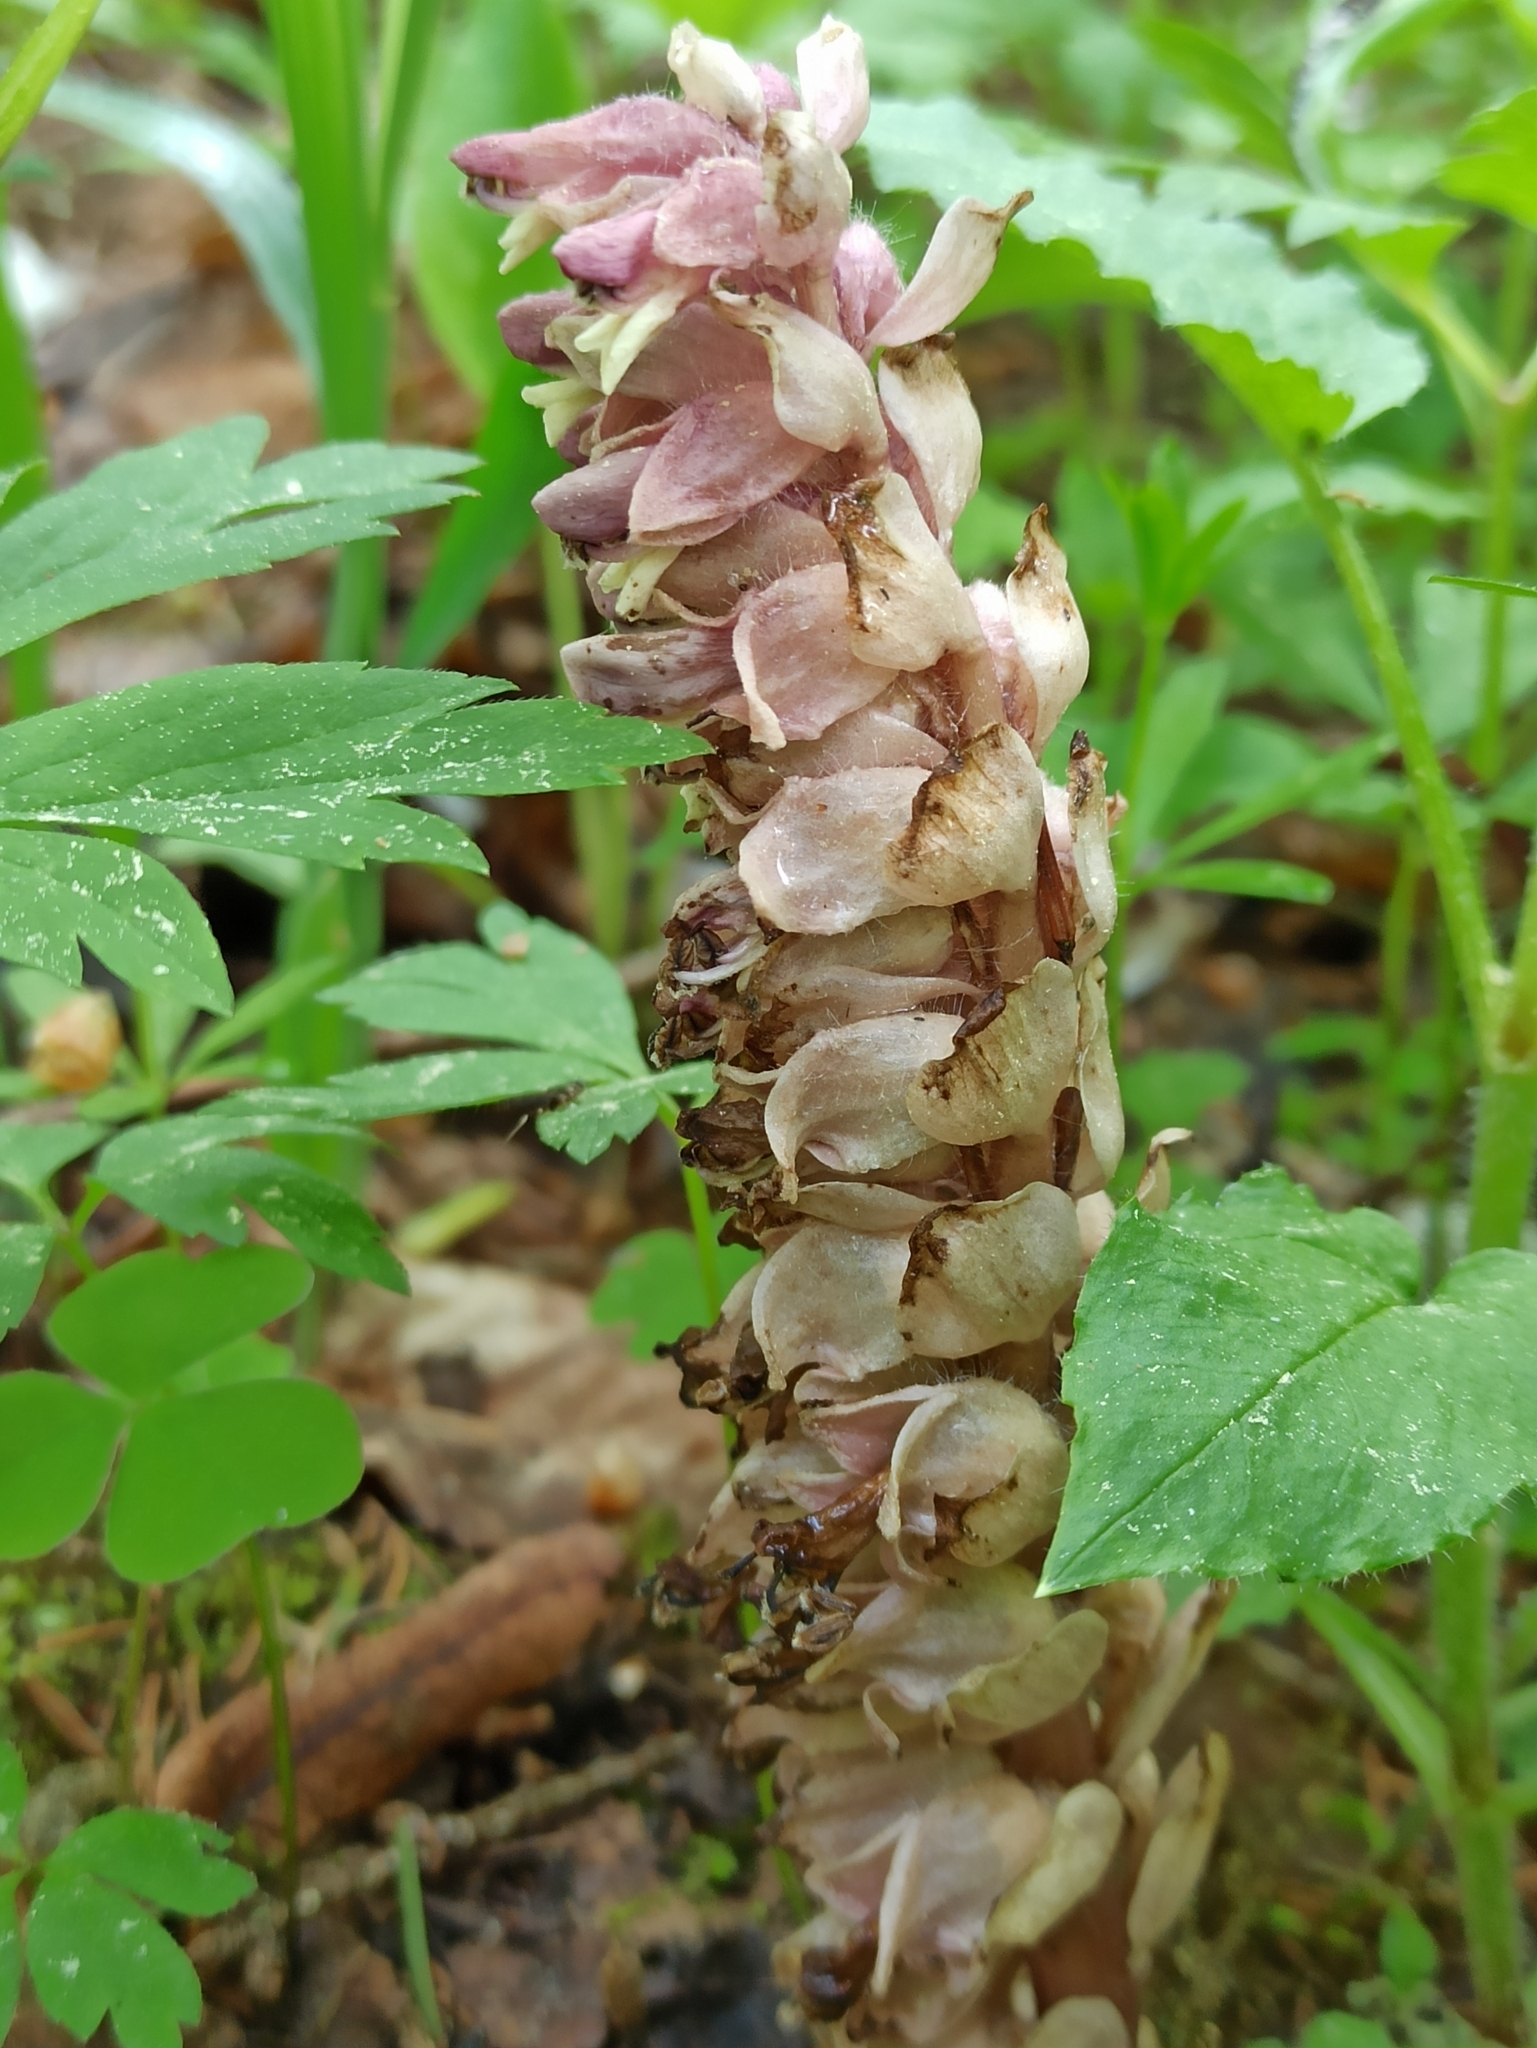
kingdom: Plantae
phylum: Tracheophyta
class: Magnoliopsida
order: Lamiales
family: Orobanchaceae
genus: Lathraea
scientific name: Lathraea squamaria
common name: Toothwort
